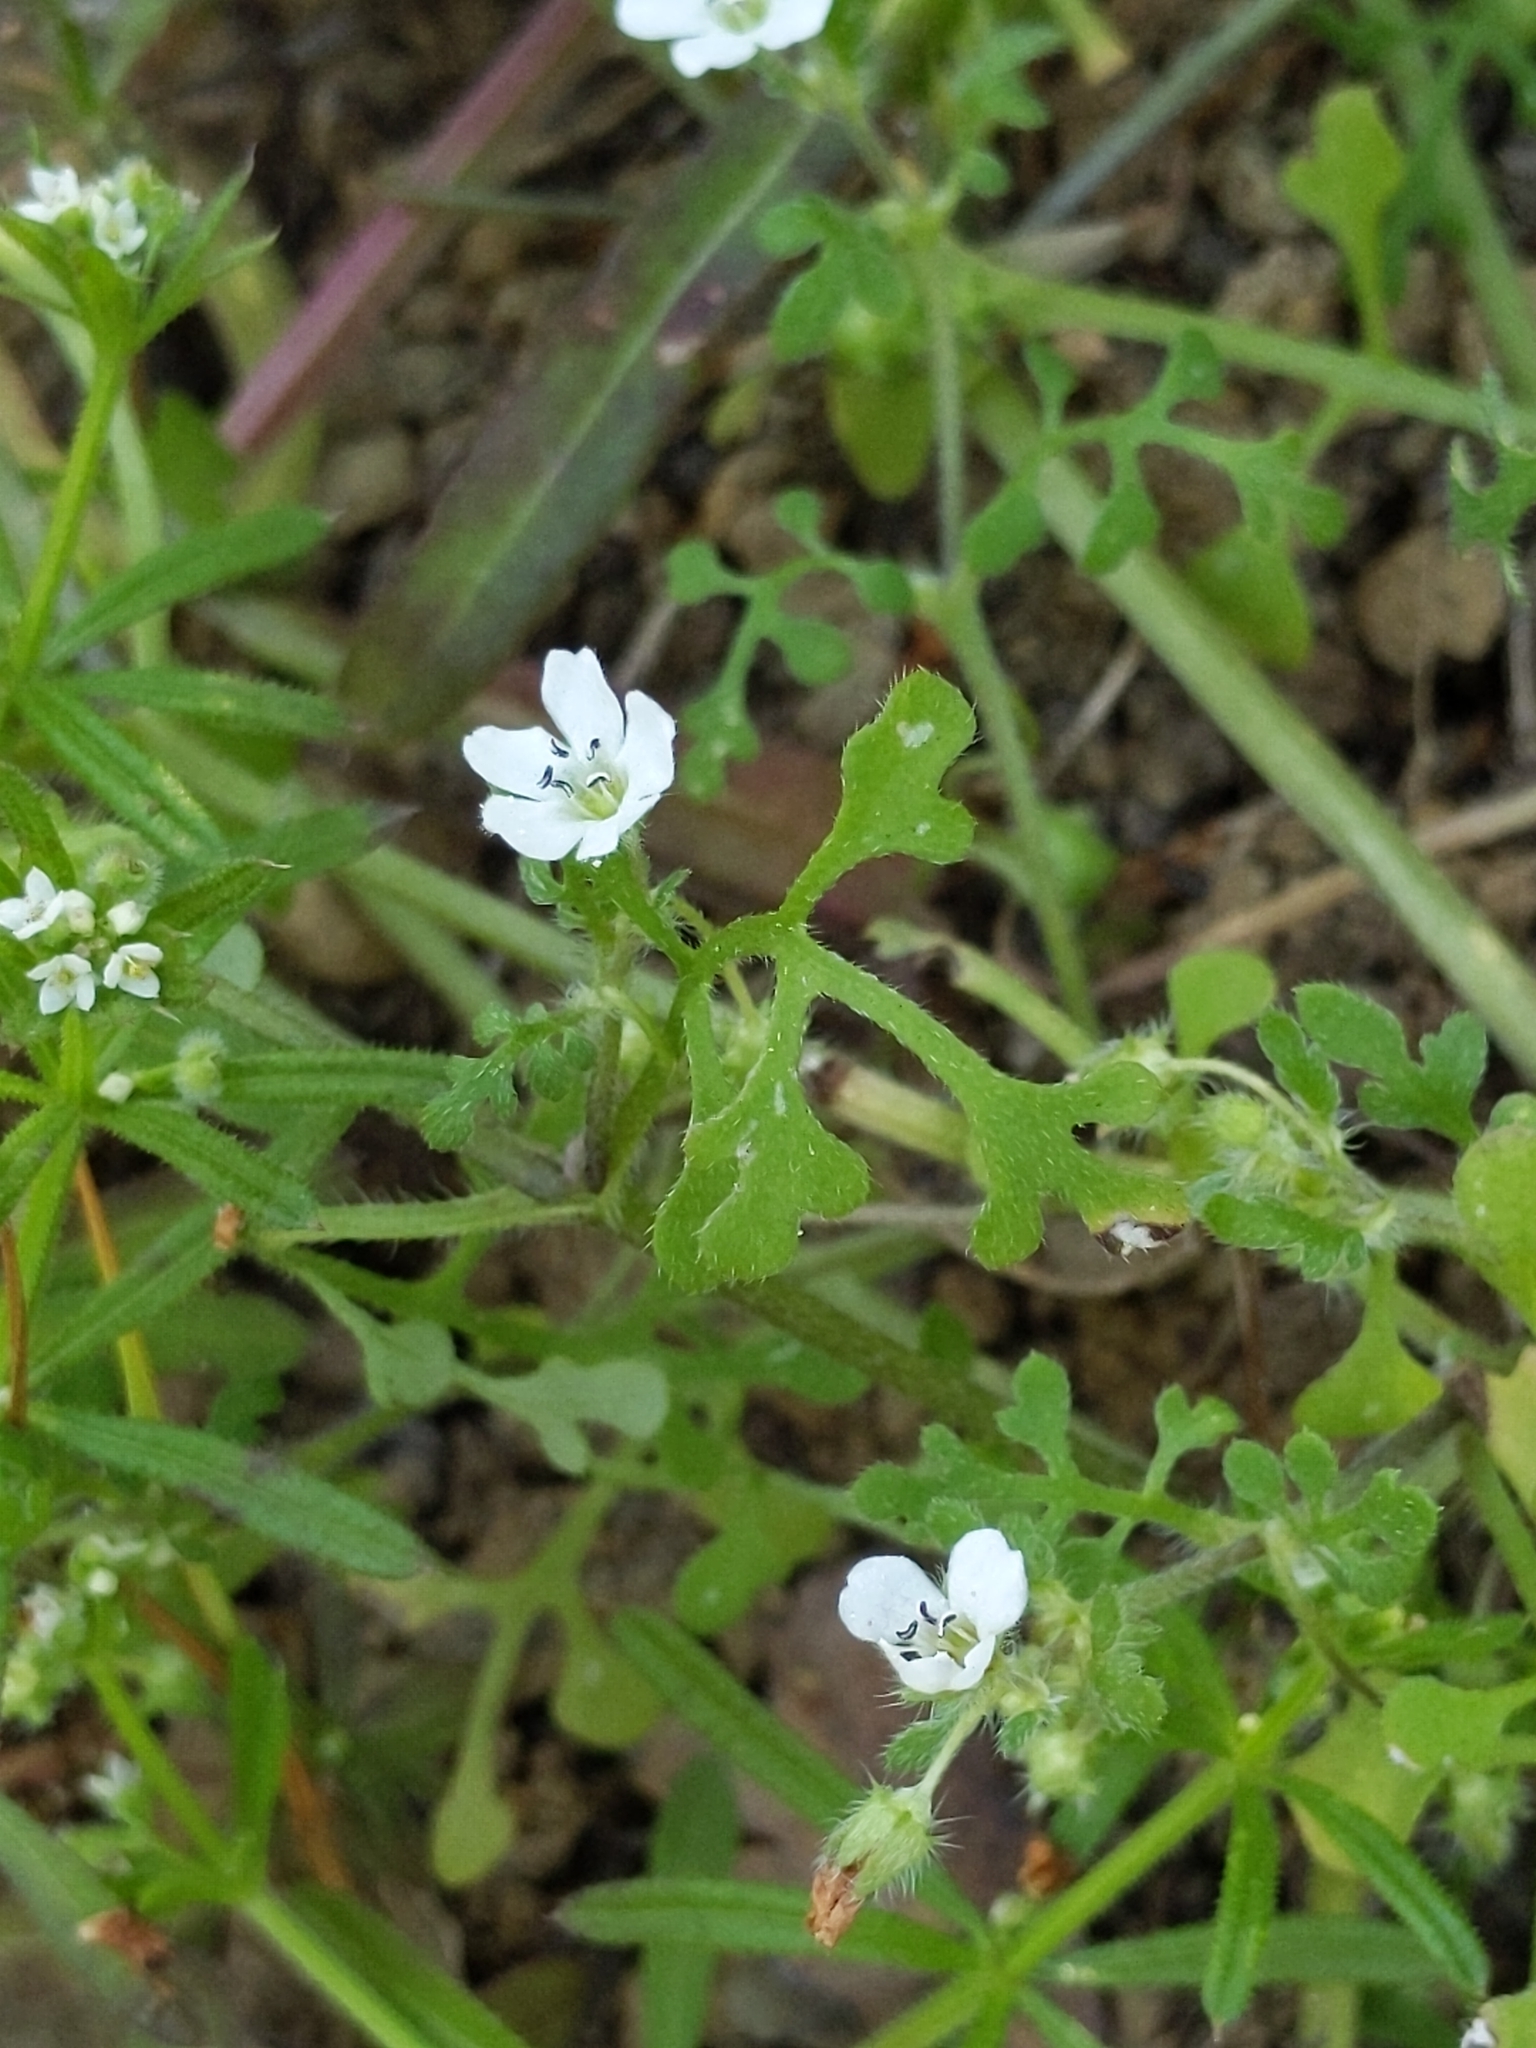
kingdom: Plantae
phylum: Tracheophyta
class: Magnoliopsida
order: Boraginales
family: Hydrophyllaceae
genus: Nemophila
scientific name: Nemophila heterophylla
